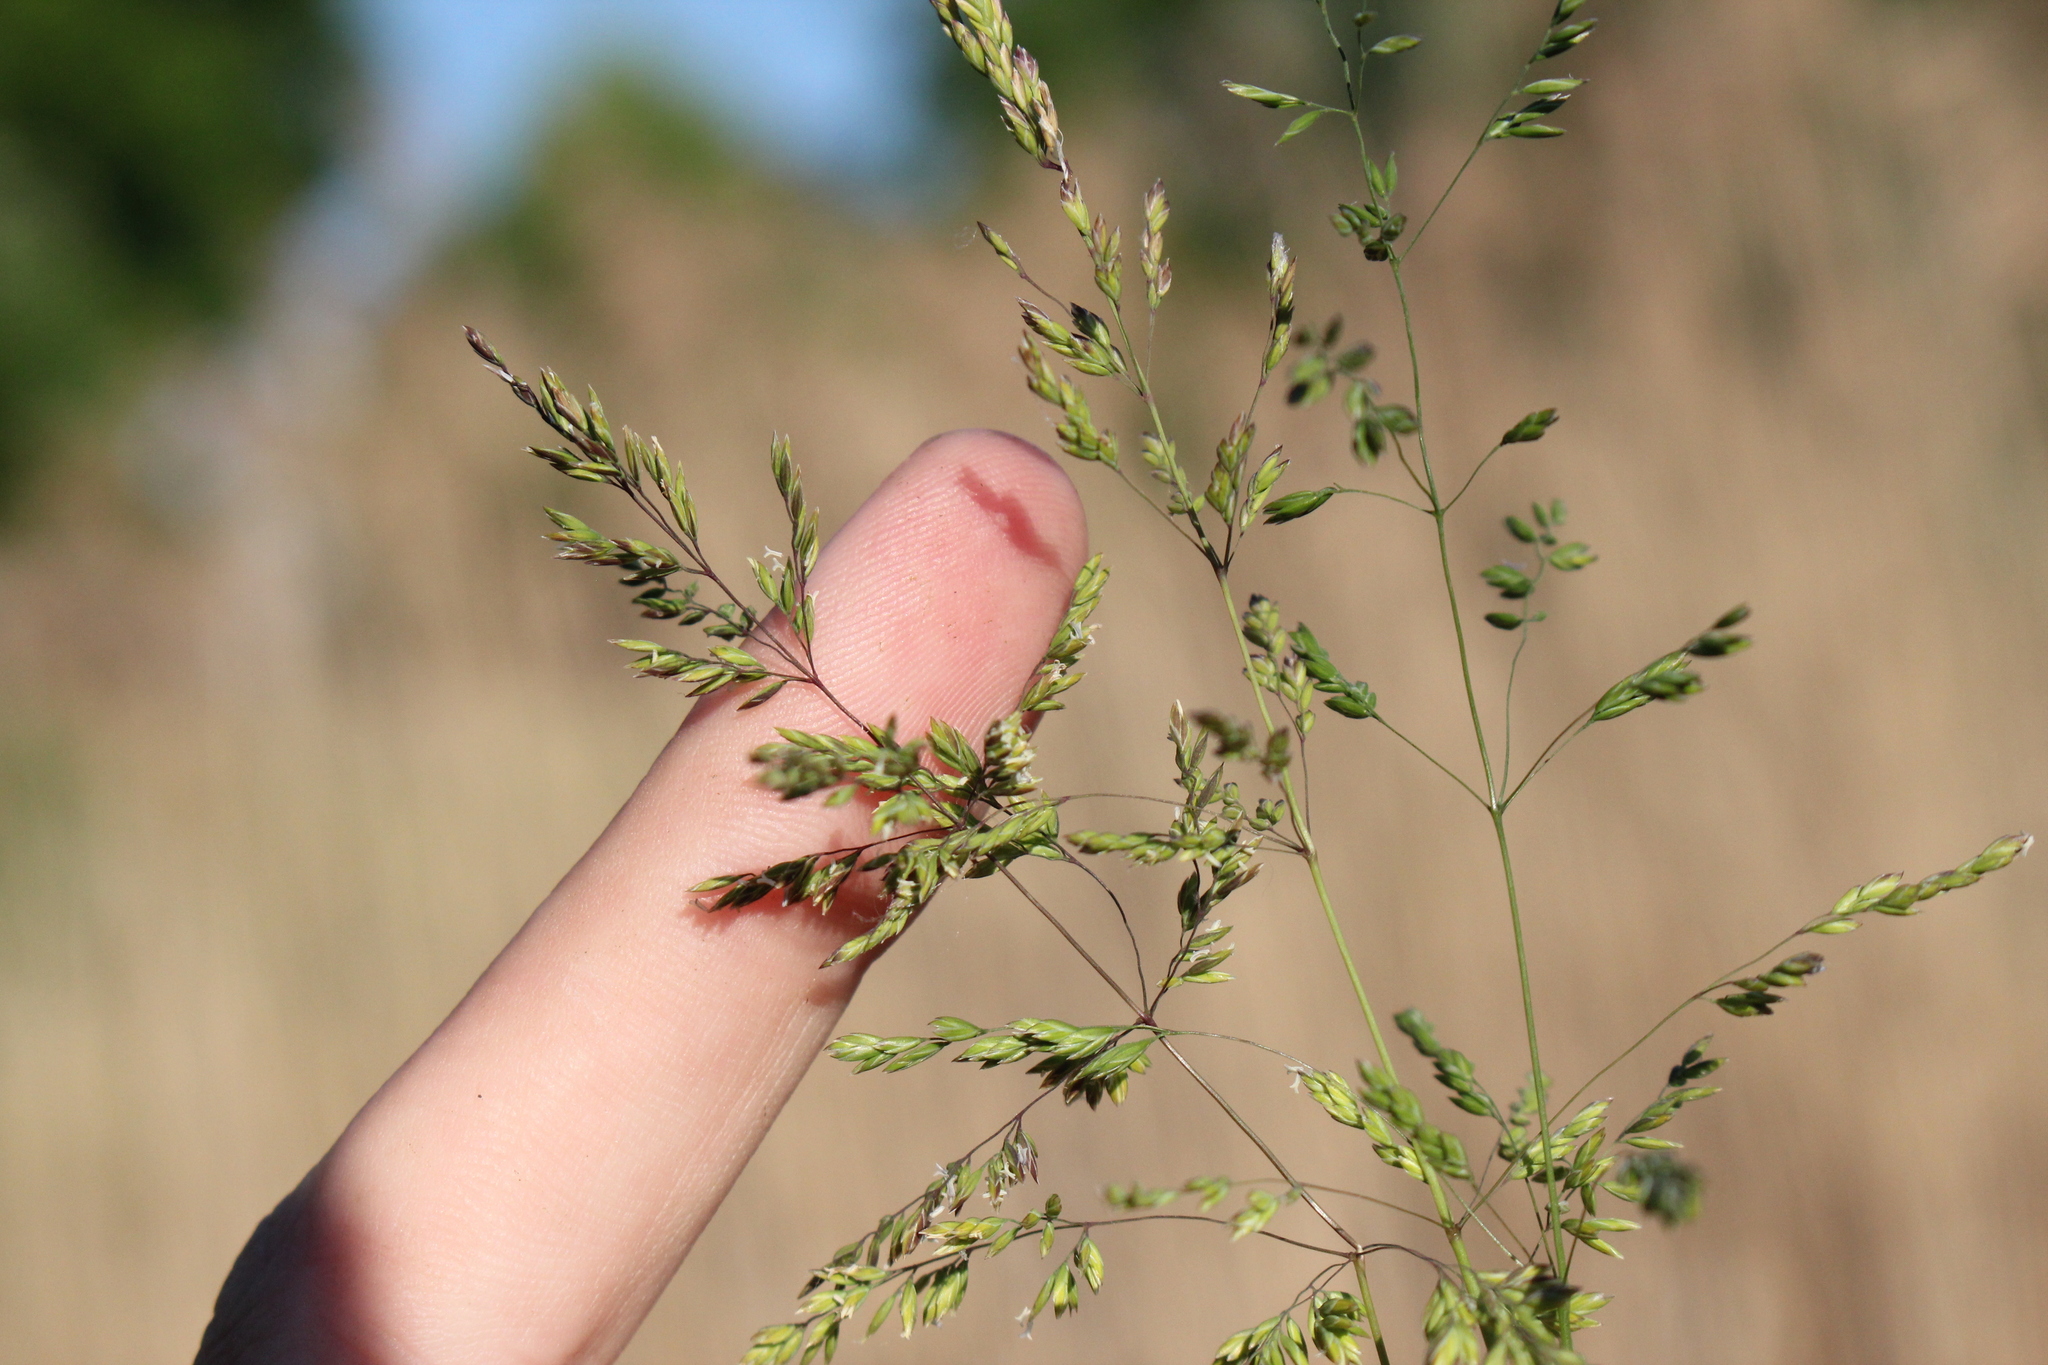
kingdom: Plantae
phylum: Tracheophyta
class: Liliopsida
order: Poales
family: Poaceae
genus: Poa
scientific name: Poa trivialis
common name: Rough bluegrass
